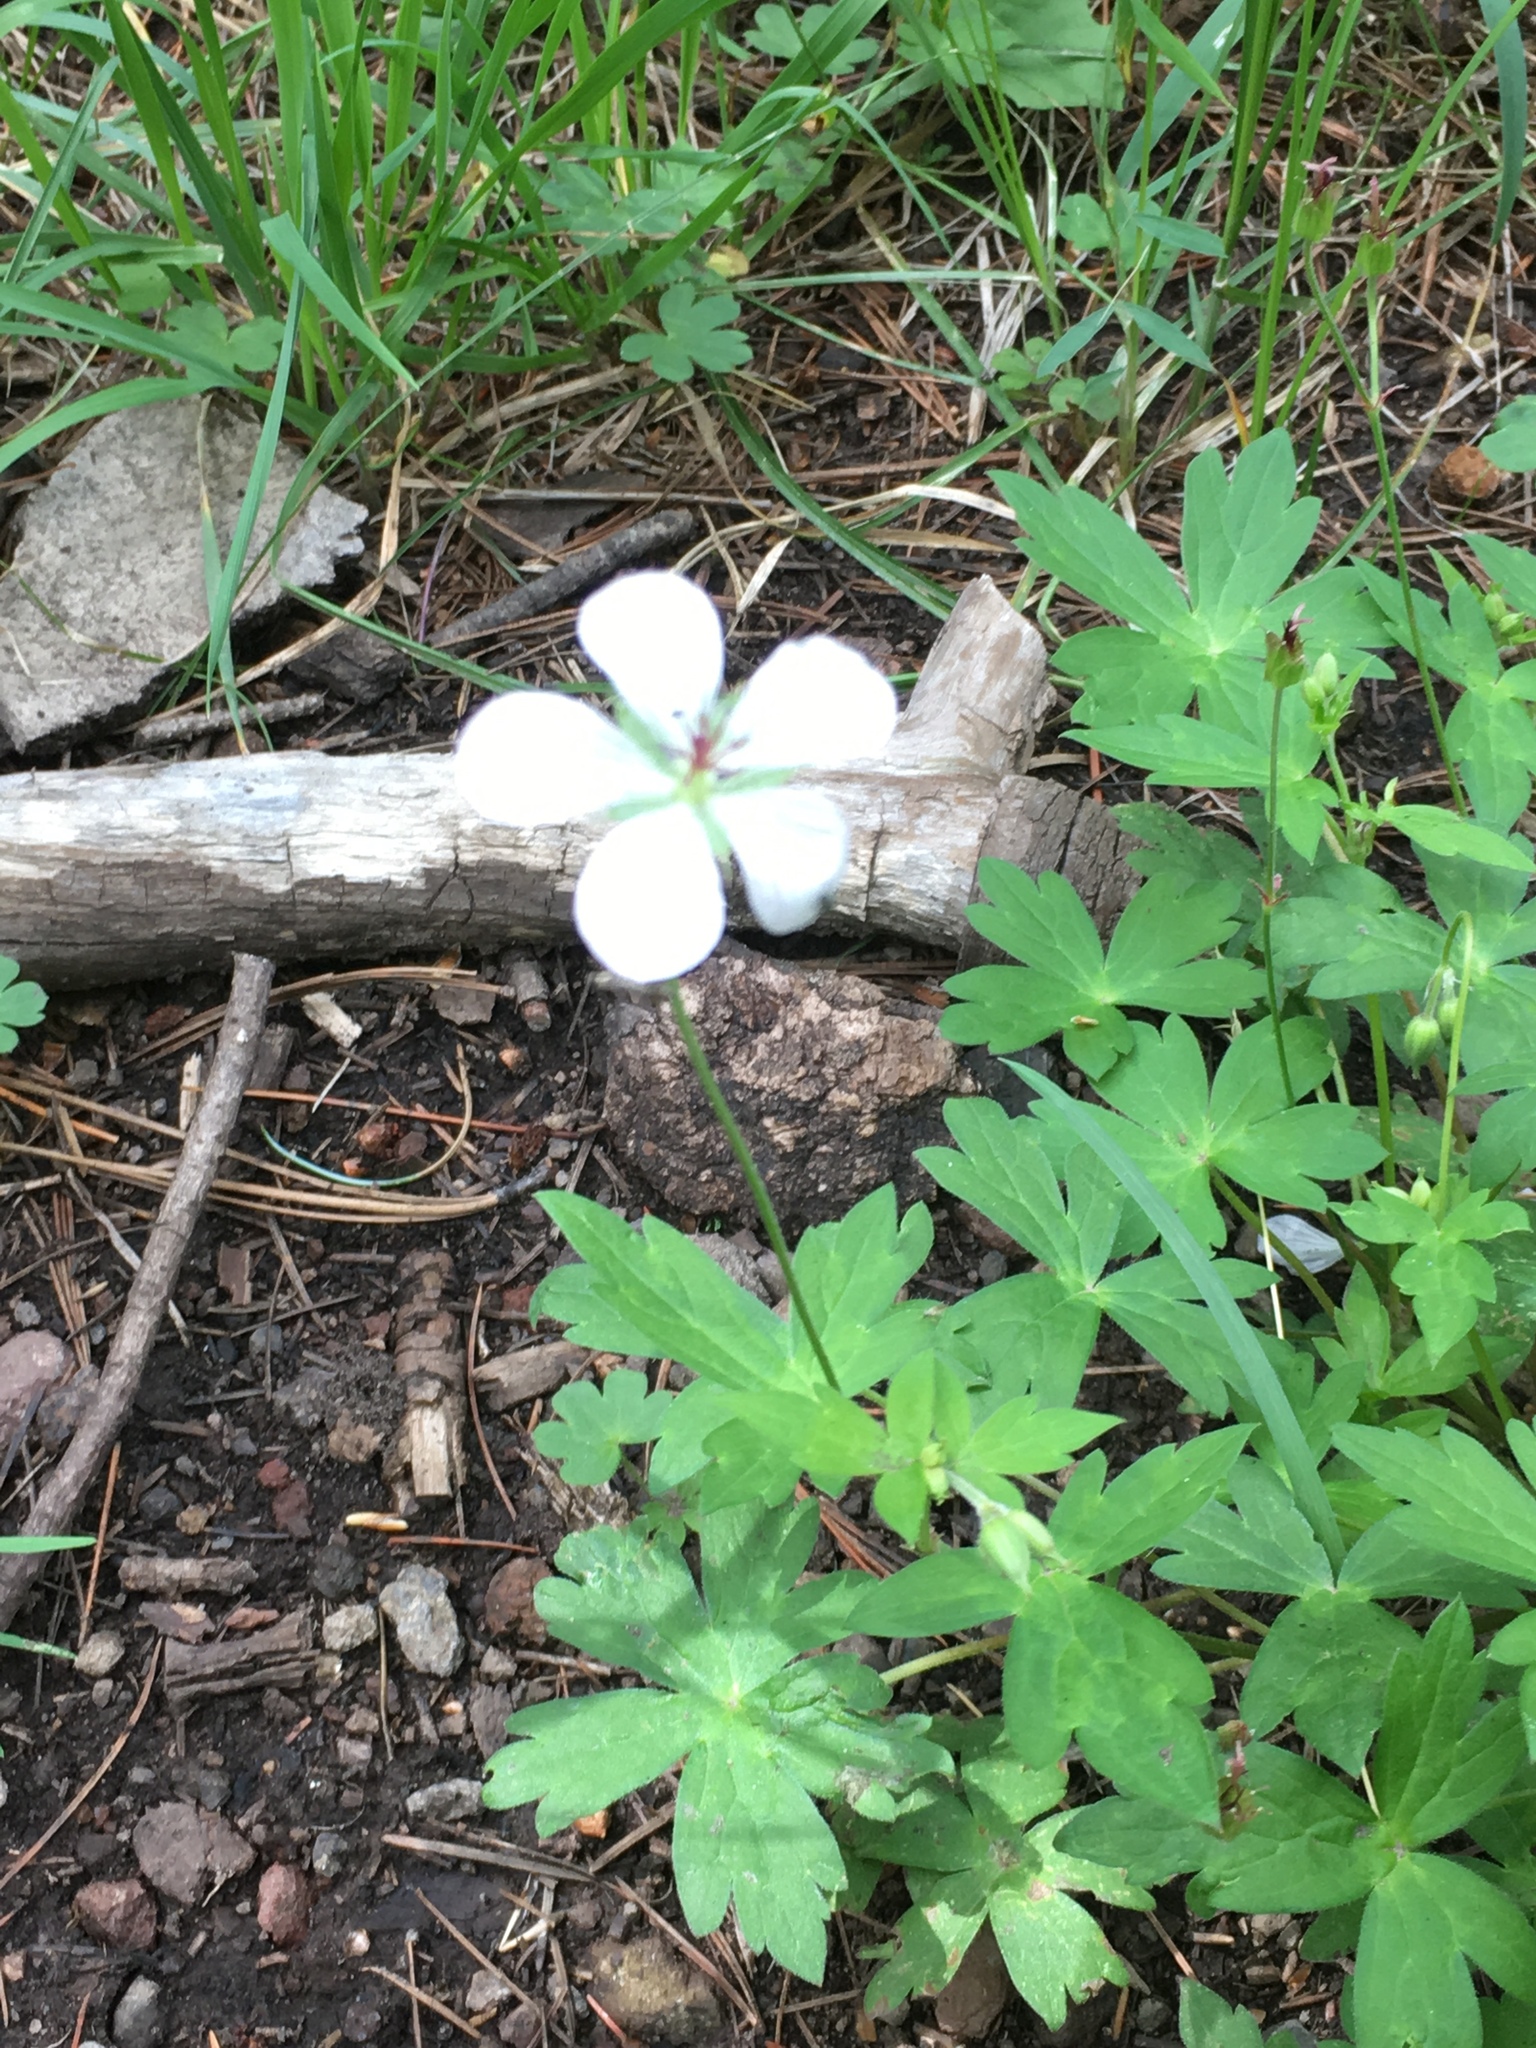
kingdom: Plantae
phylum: Tracheophyta
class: Magnoliopsida
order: Geraniales
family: Geraniaceae
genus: Geranium
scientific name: Geranium richardsonii
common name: Richardson's crane's-bill
